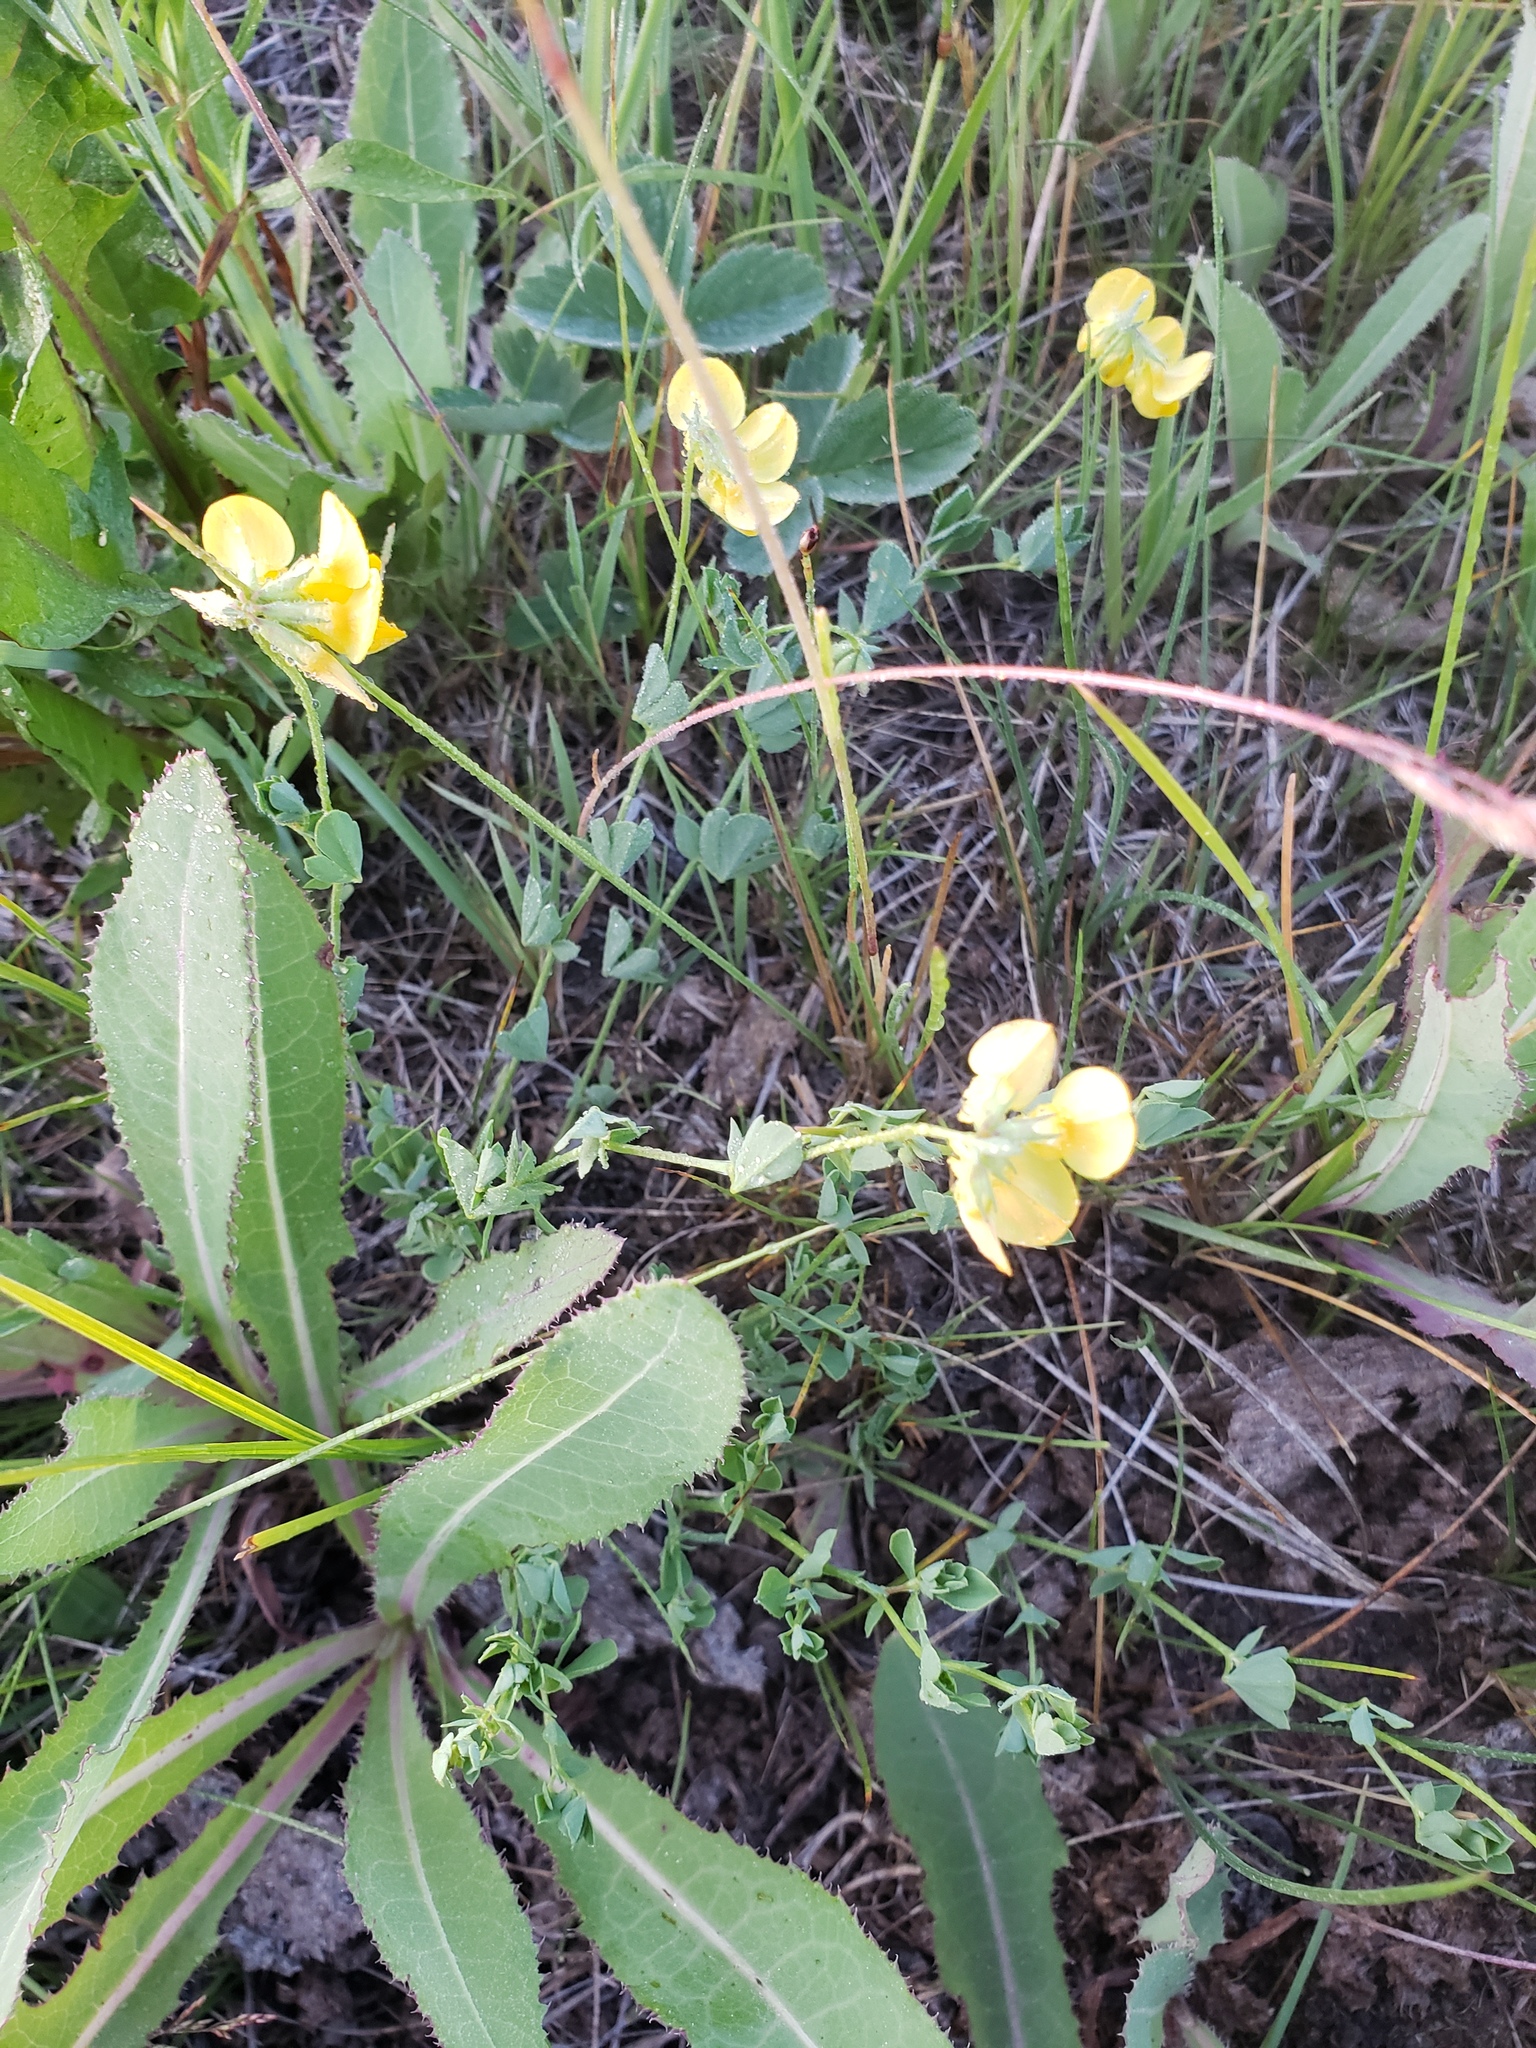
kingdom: Plantae
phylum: Tracheophyta
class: Magnoliopsida
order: Fabales
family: Fabaceae
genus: Lotus
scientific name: Lotus corniculatus
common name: Common bird's-foot-trefoil
